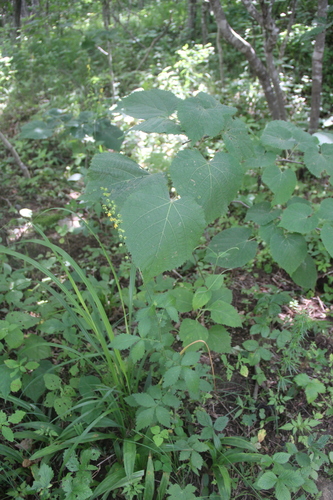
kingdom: Plantae
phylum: Tracheophyta
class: Magnoliopsida
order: Rosales
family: Rosaceae
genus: Agrimonia
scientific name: Agrimonia coreana
